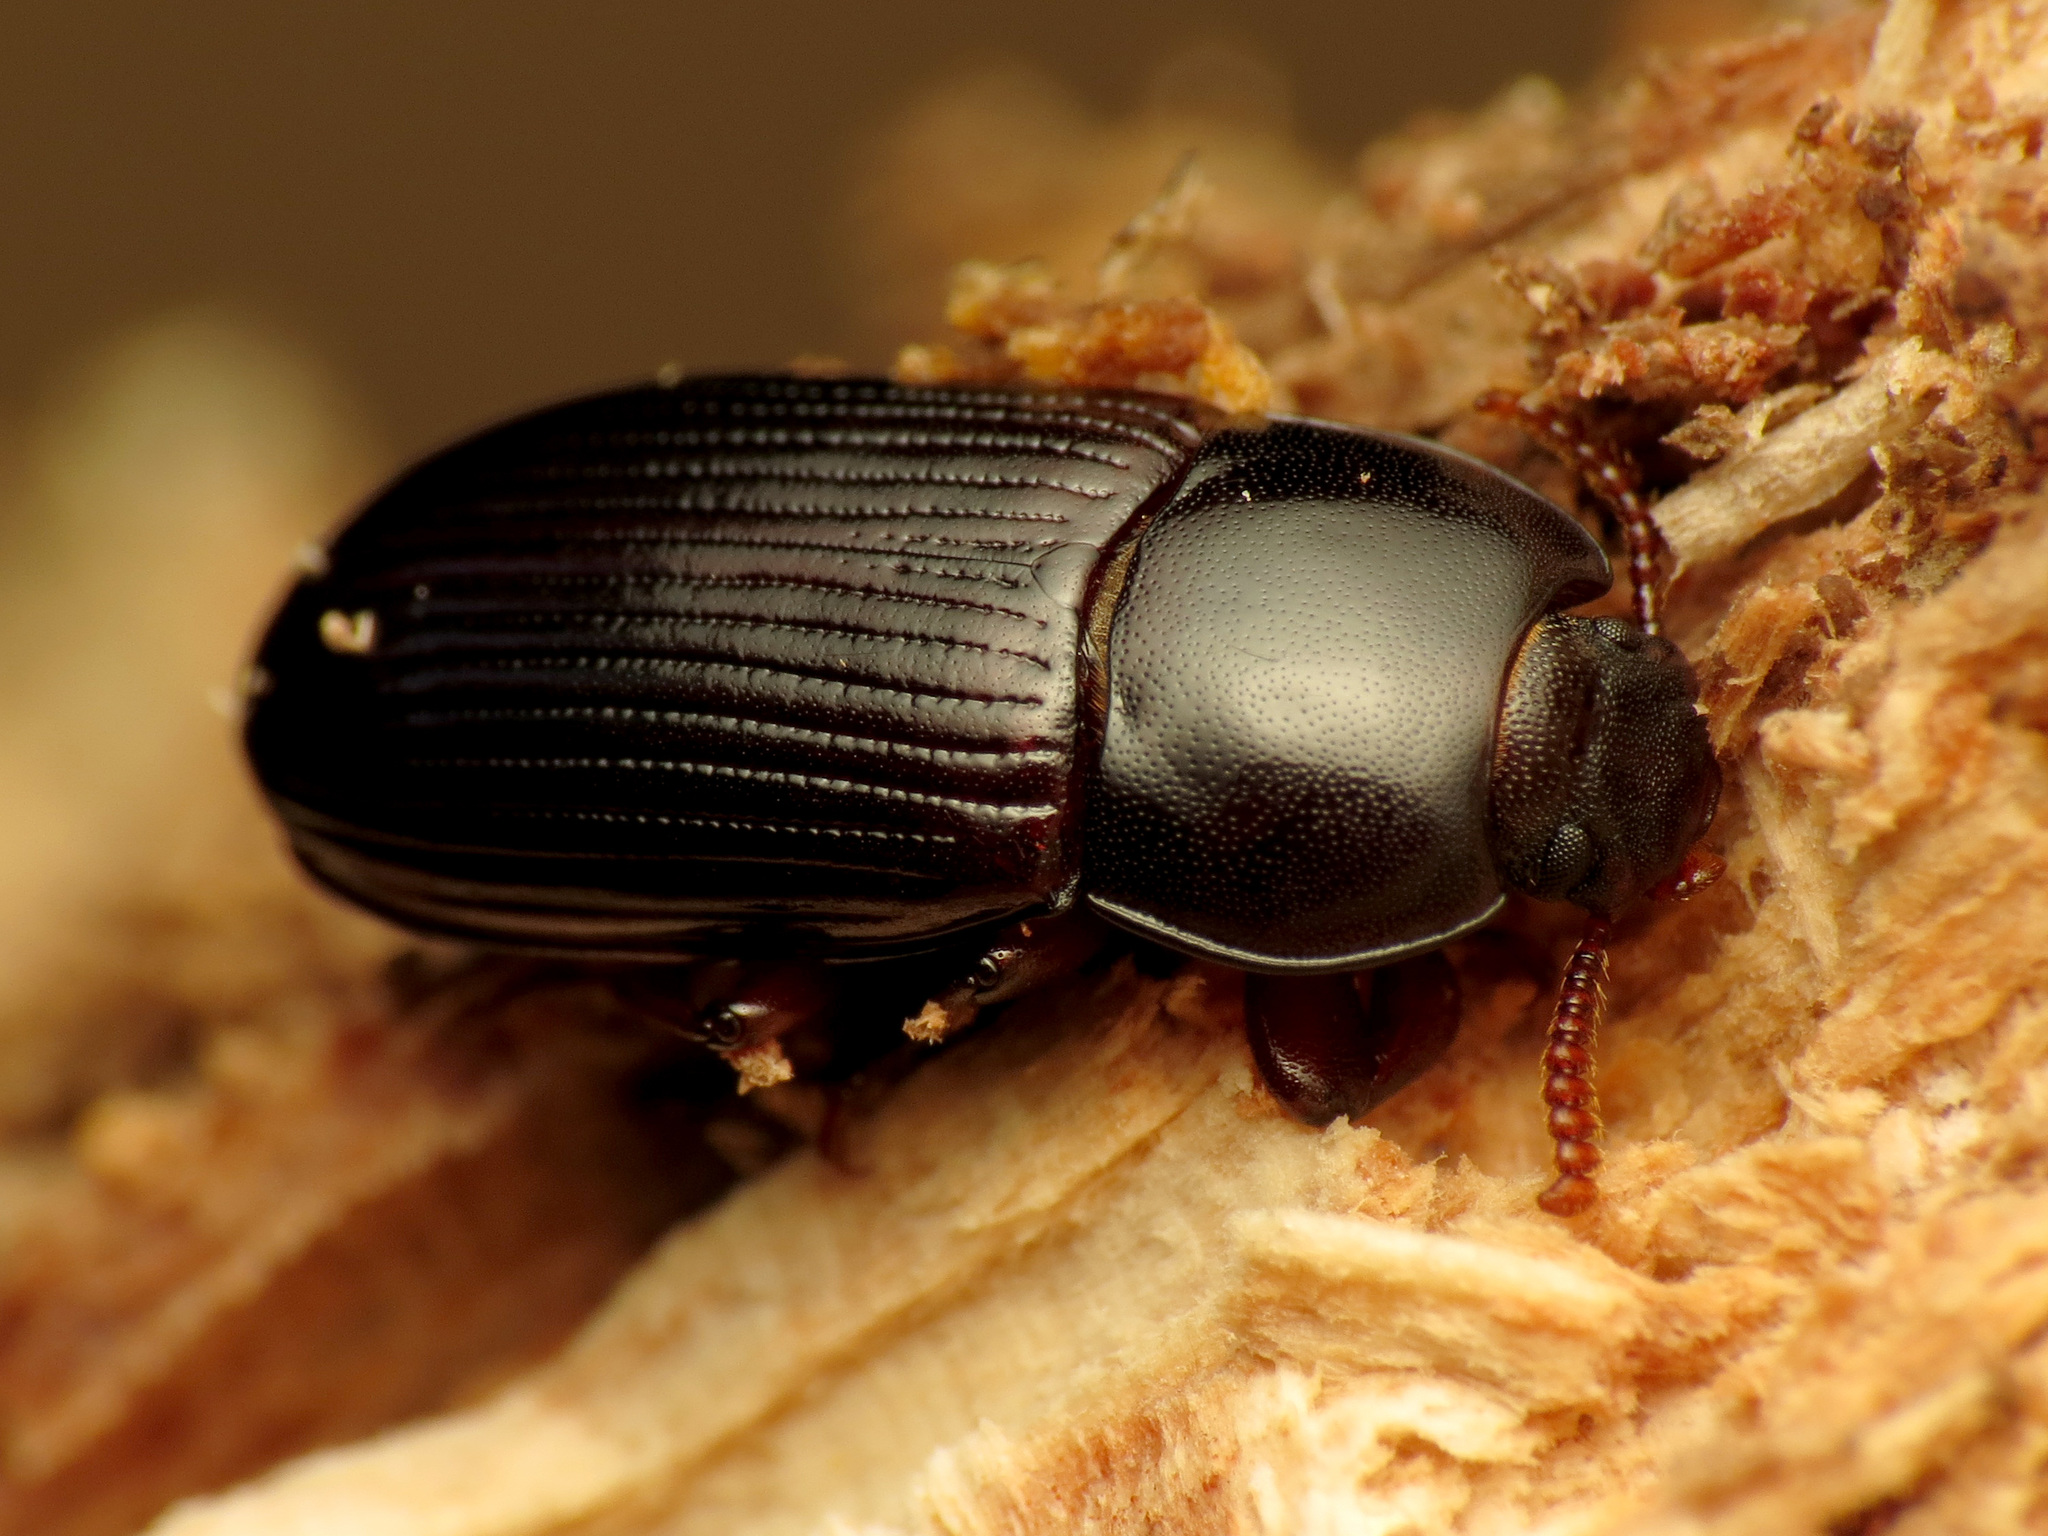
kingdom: Animalia
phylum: Arthropoda
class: Insecta
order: Coleoptera
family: Tenebrionidae
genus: Uloma
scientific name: Uloma imberbis
